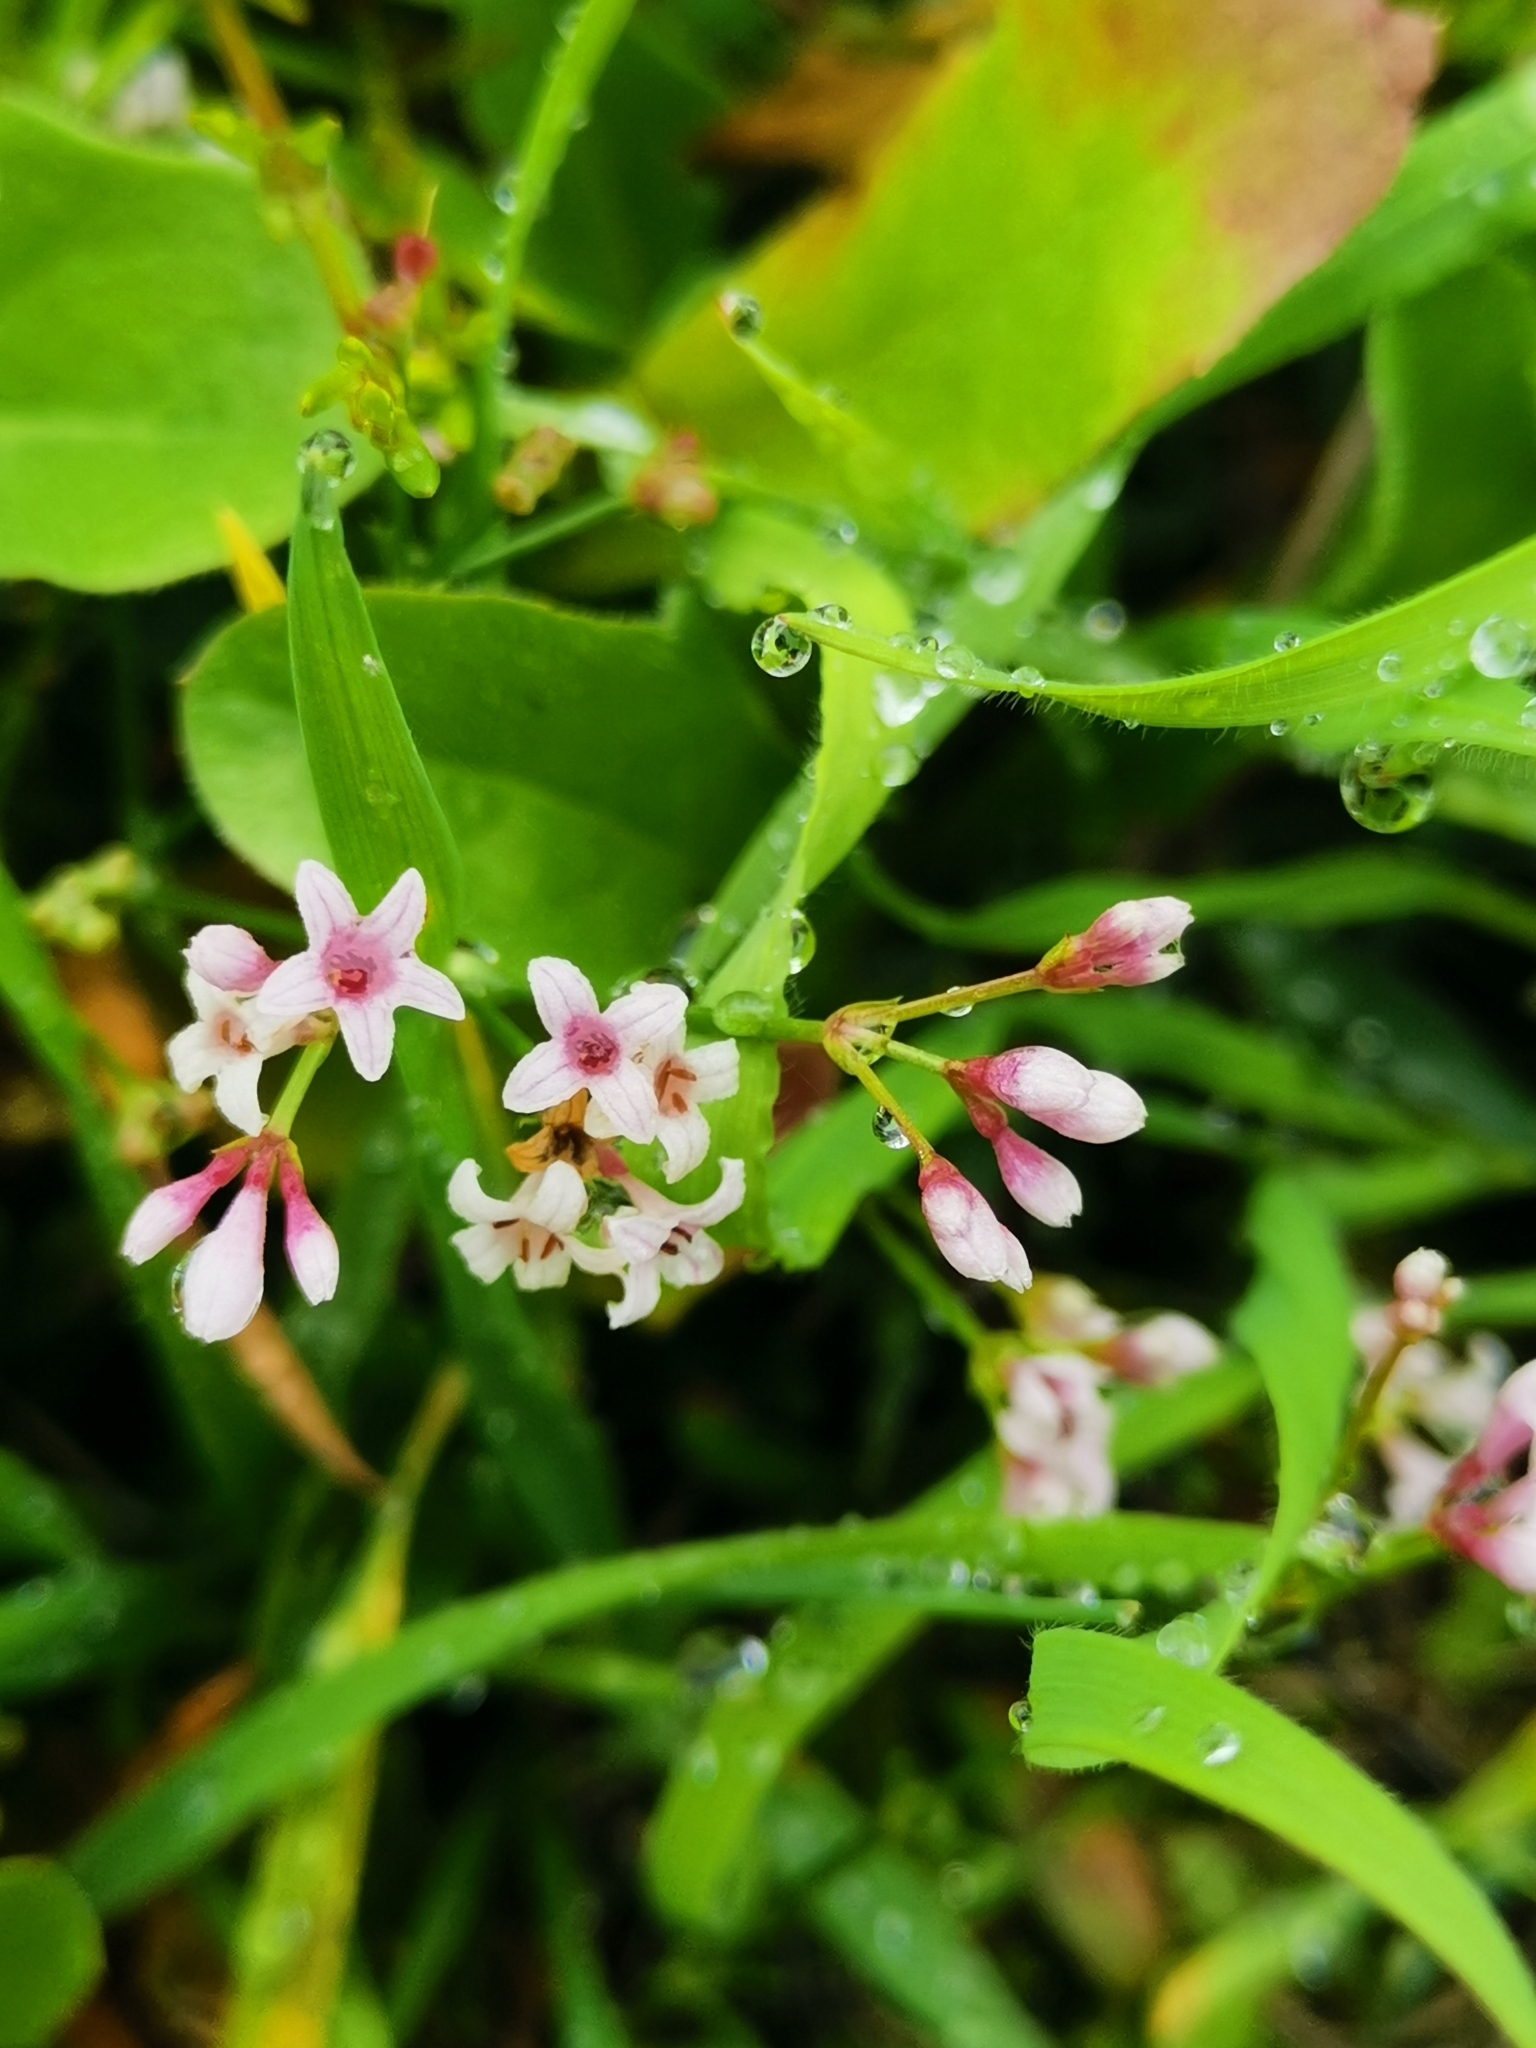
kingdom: Plantae
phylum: Tracheophyta
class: Magnoliopsida
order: Gentianales
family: Rubiaceae
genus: Cynanchica
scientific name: Cynanchica pyrenaica
